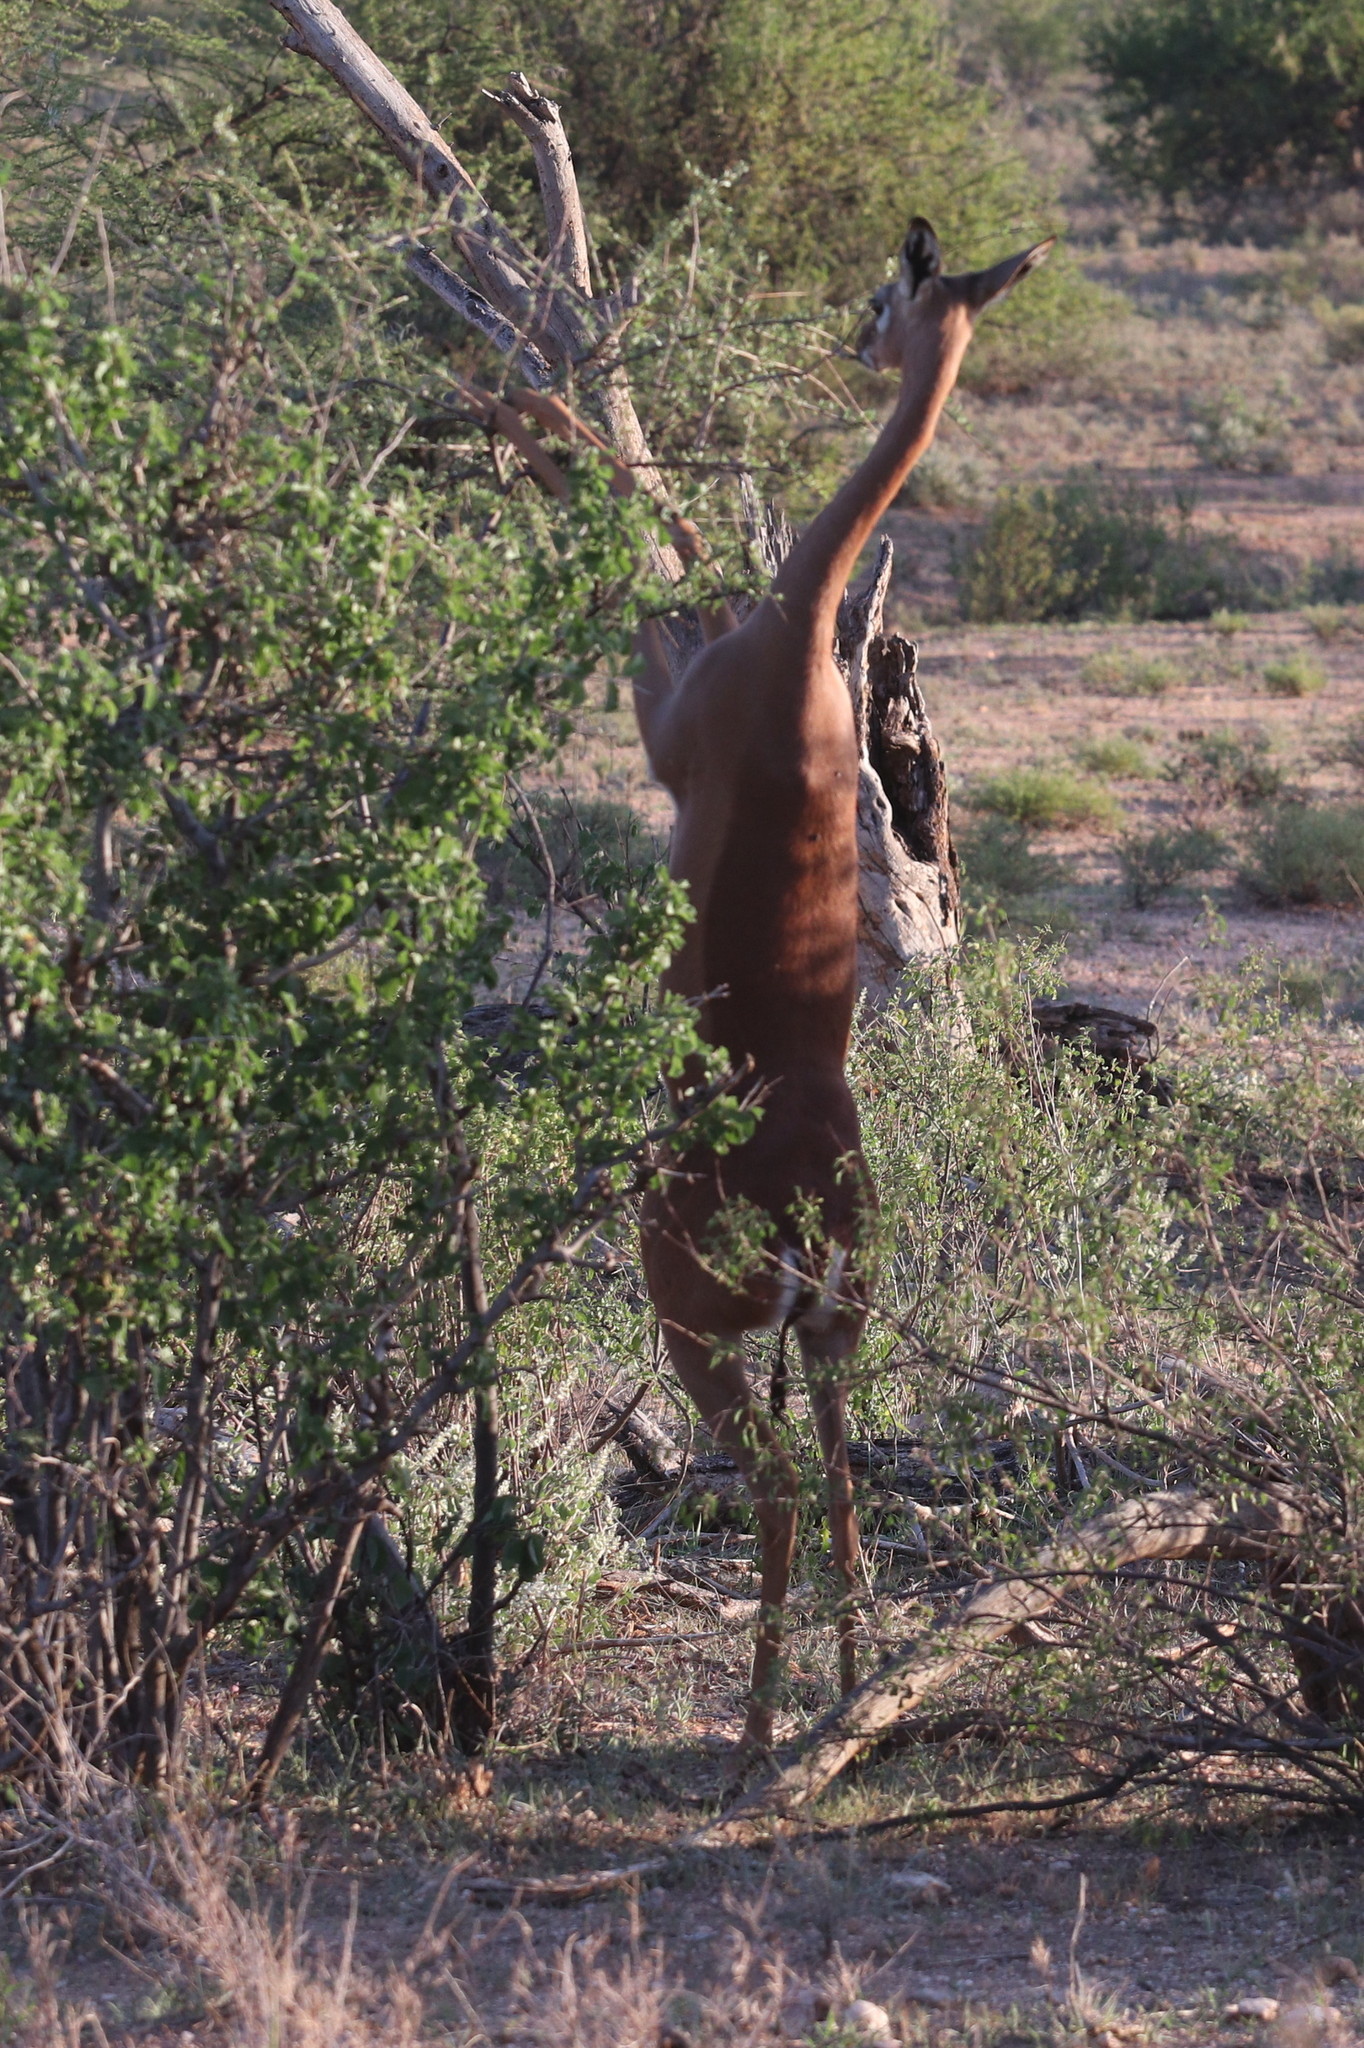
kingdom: Animalia
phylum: Chordata
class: Mammalia
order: Artiodactyla
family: Bovidae
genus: Litocranius
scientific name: Litocranius walleri
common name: Gerenuk
